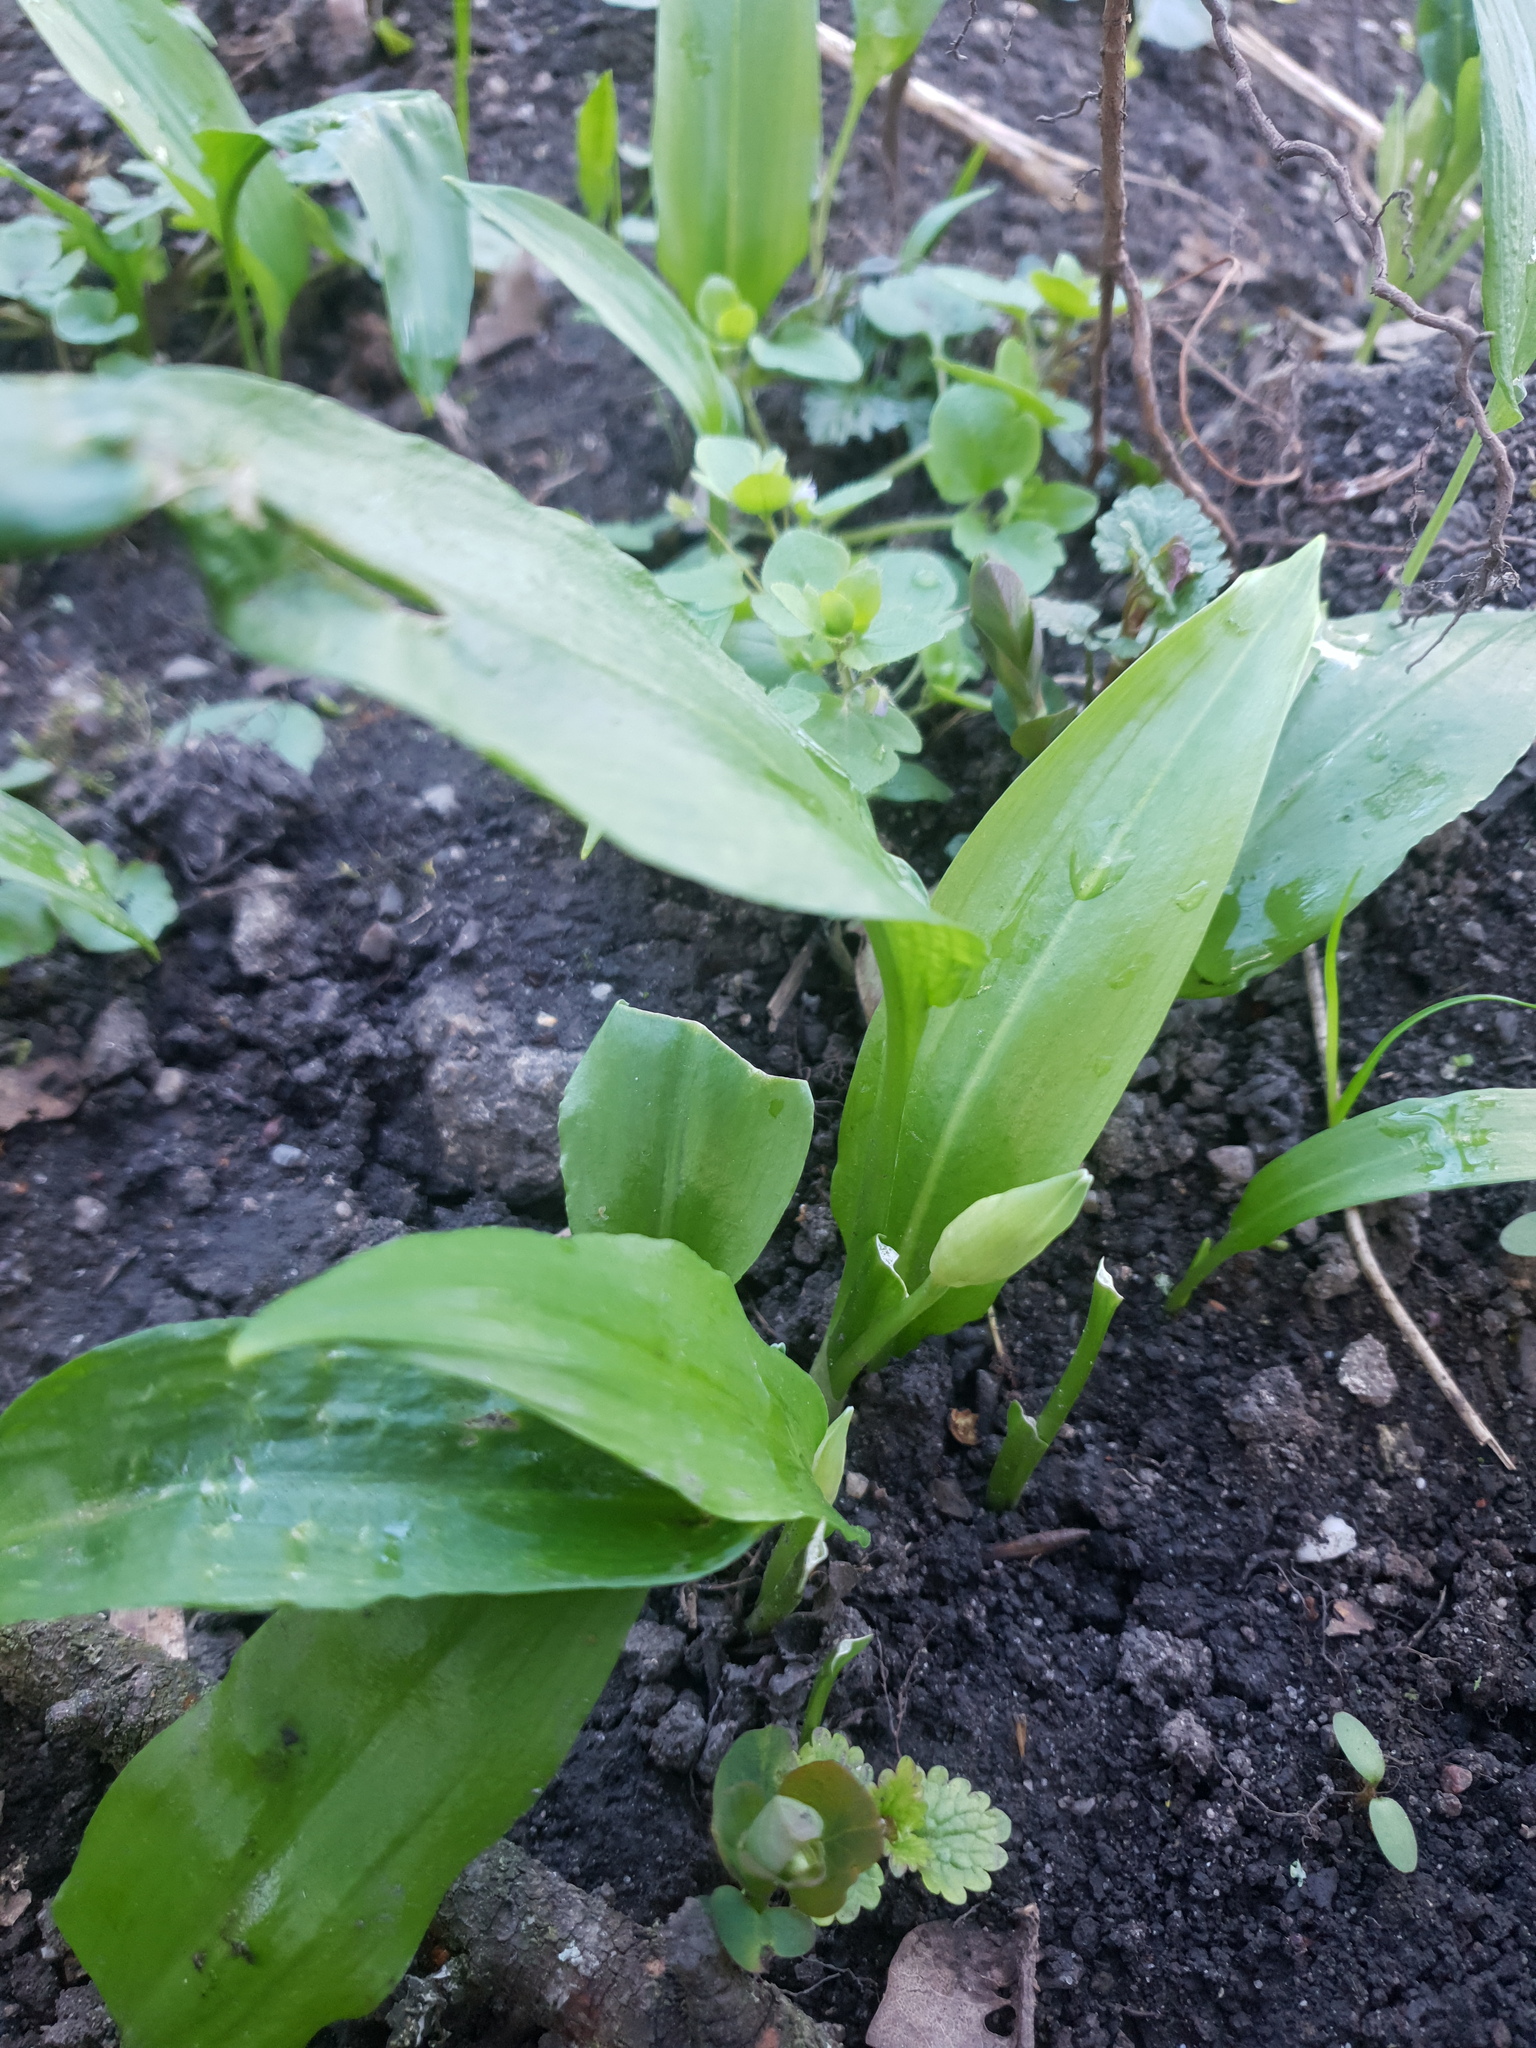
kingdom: Plantae
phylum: Tracheophyta
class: Liliopsida
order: Asparagales
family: Amaryllidaceae
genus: Allium
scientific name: Allium ursinum
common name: Ramsons
